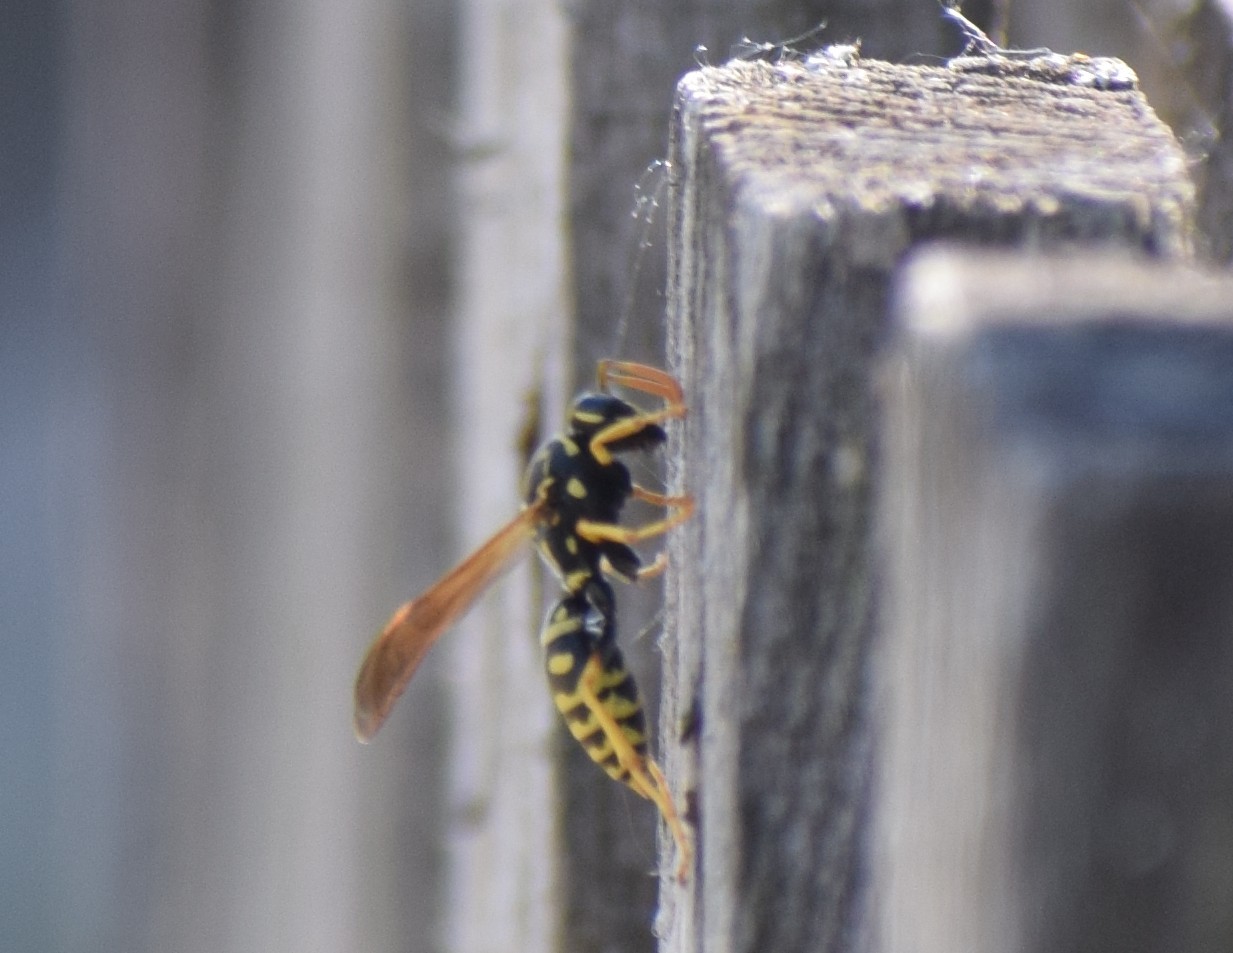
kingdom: Animalia
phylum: Arthropoda
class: Insecta
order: Hymenoptera
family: Eumenidae
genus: Polistes
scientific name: Polistes dominula
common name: Paper wasp
